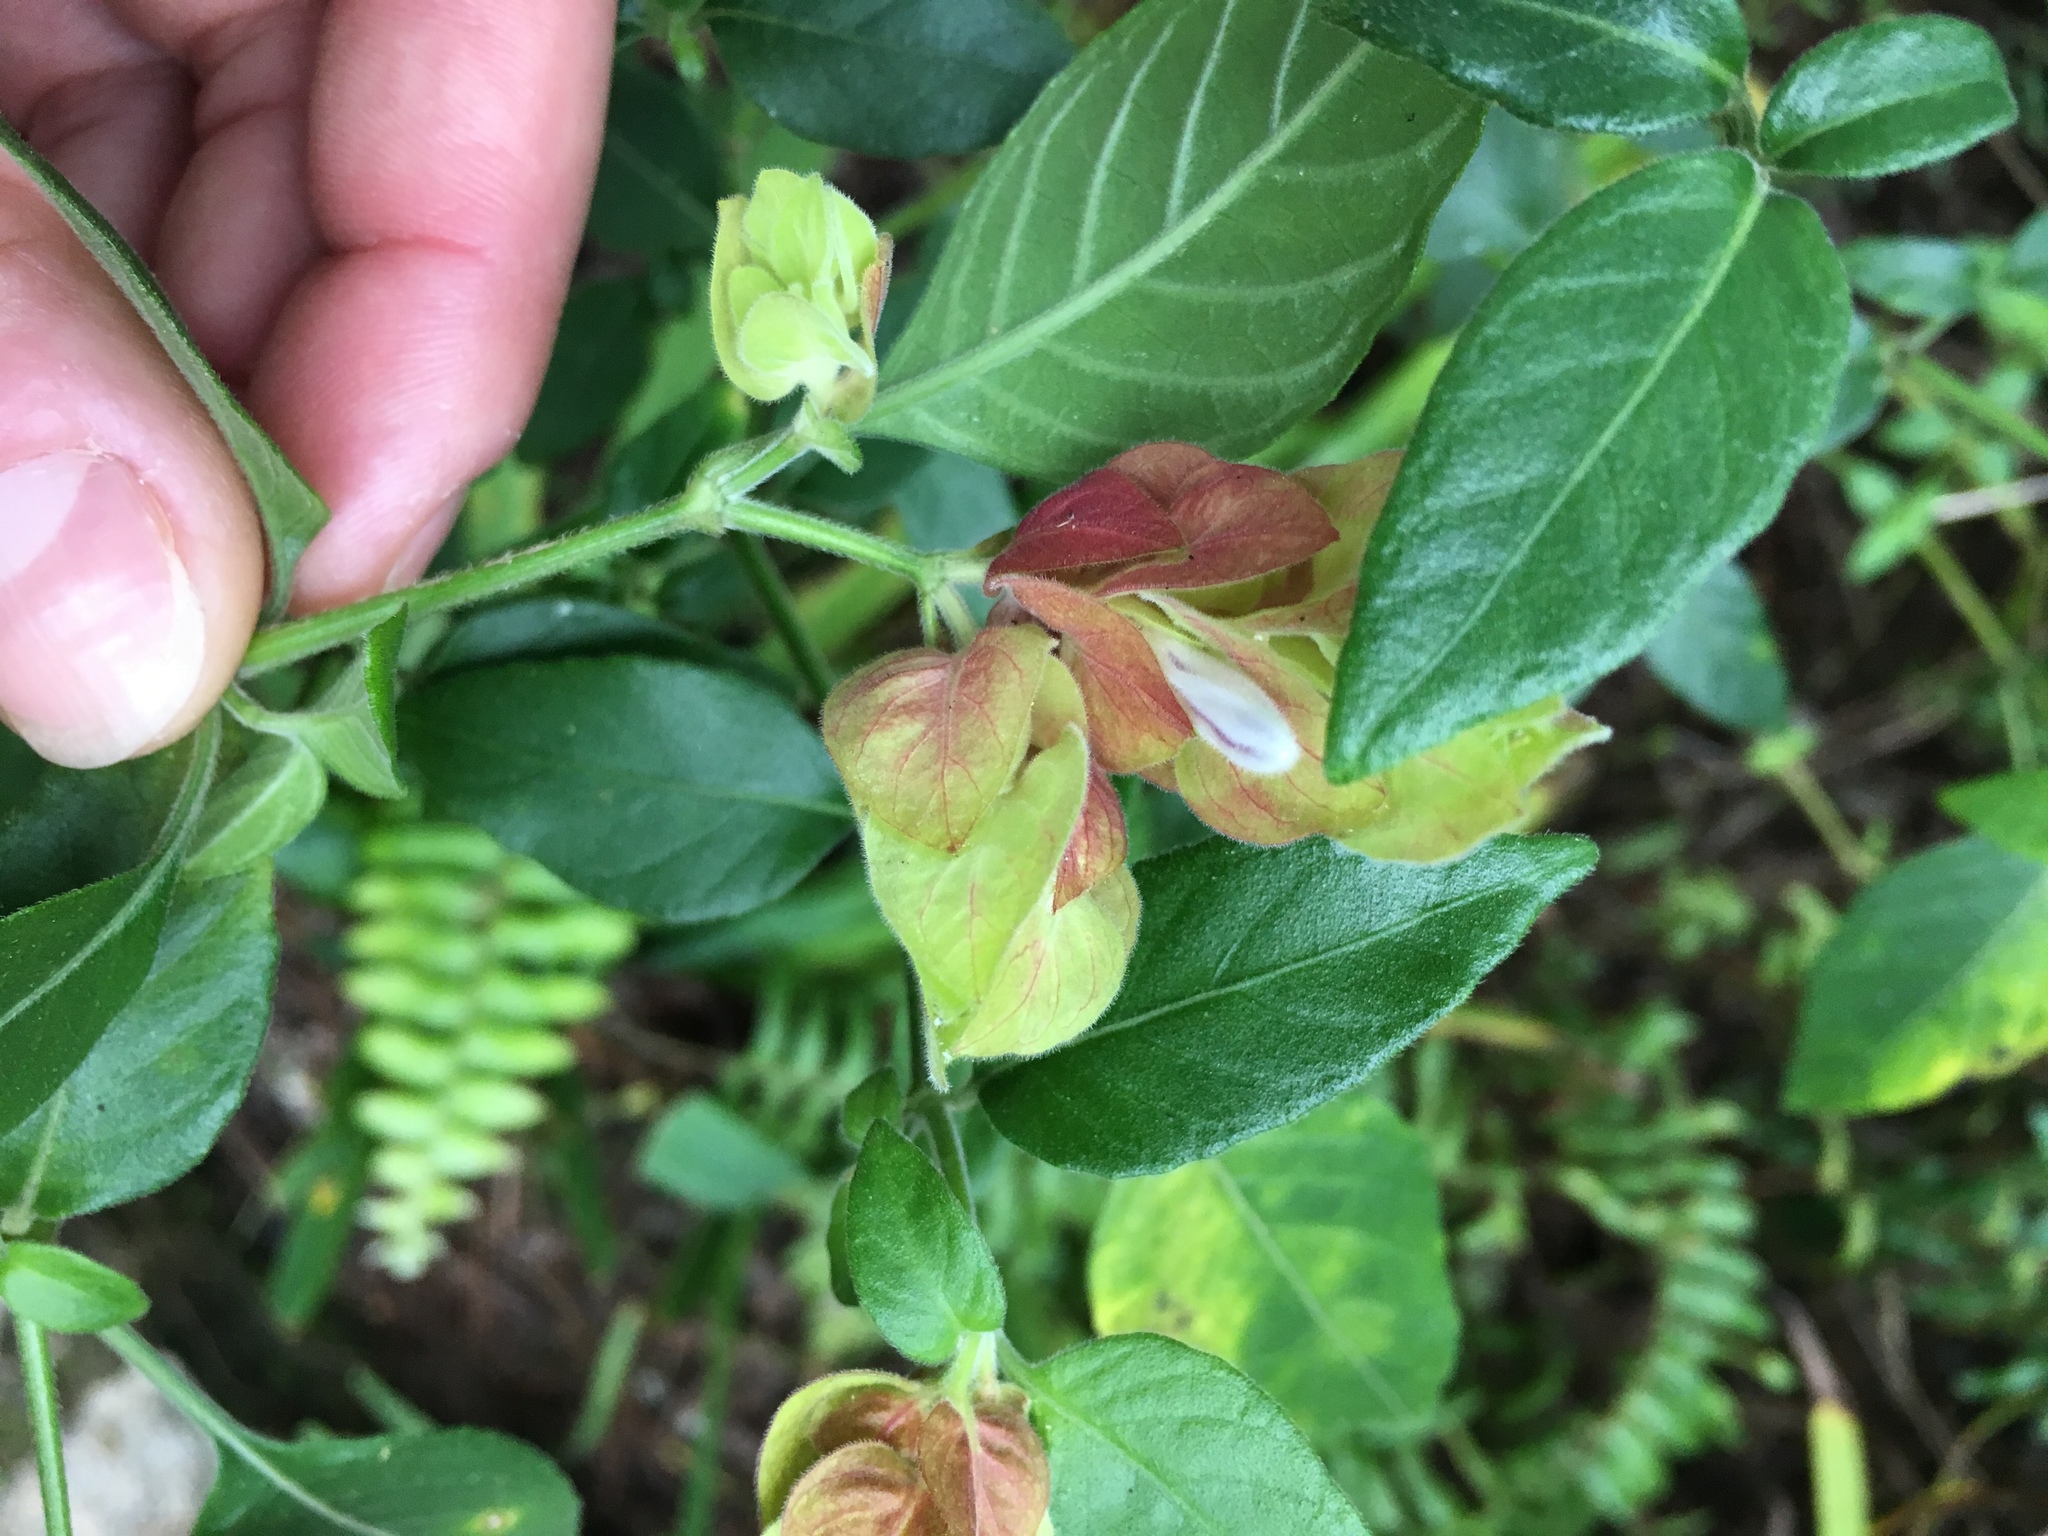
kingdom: Plantae
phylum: Tracheophyta
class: Magnoliopsida
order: Lamiales
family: Acanthaceae
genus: Justicia
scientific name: Justicia brandegeeana
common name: Shrimpplant
